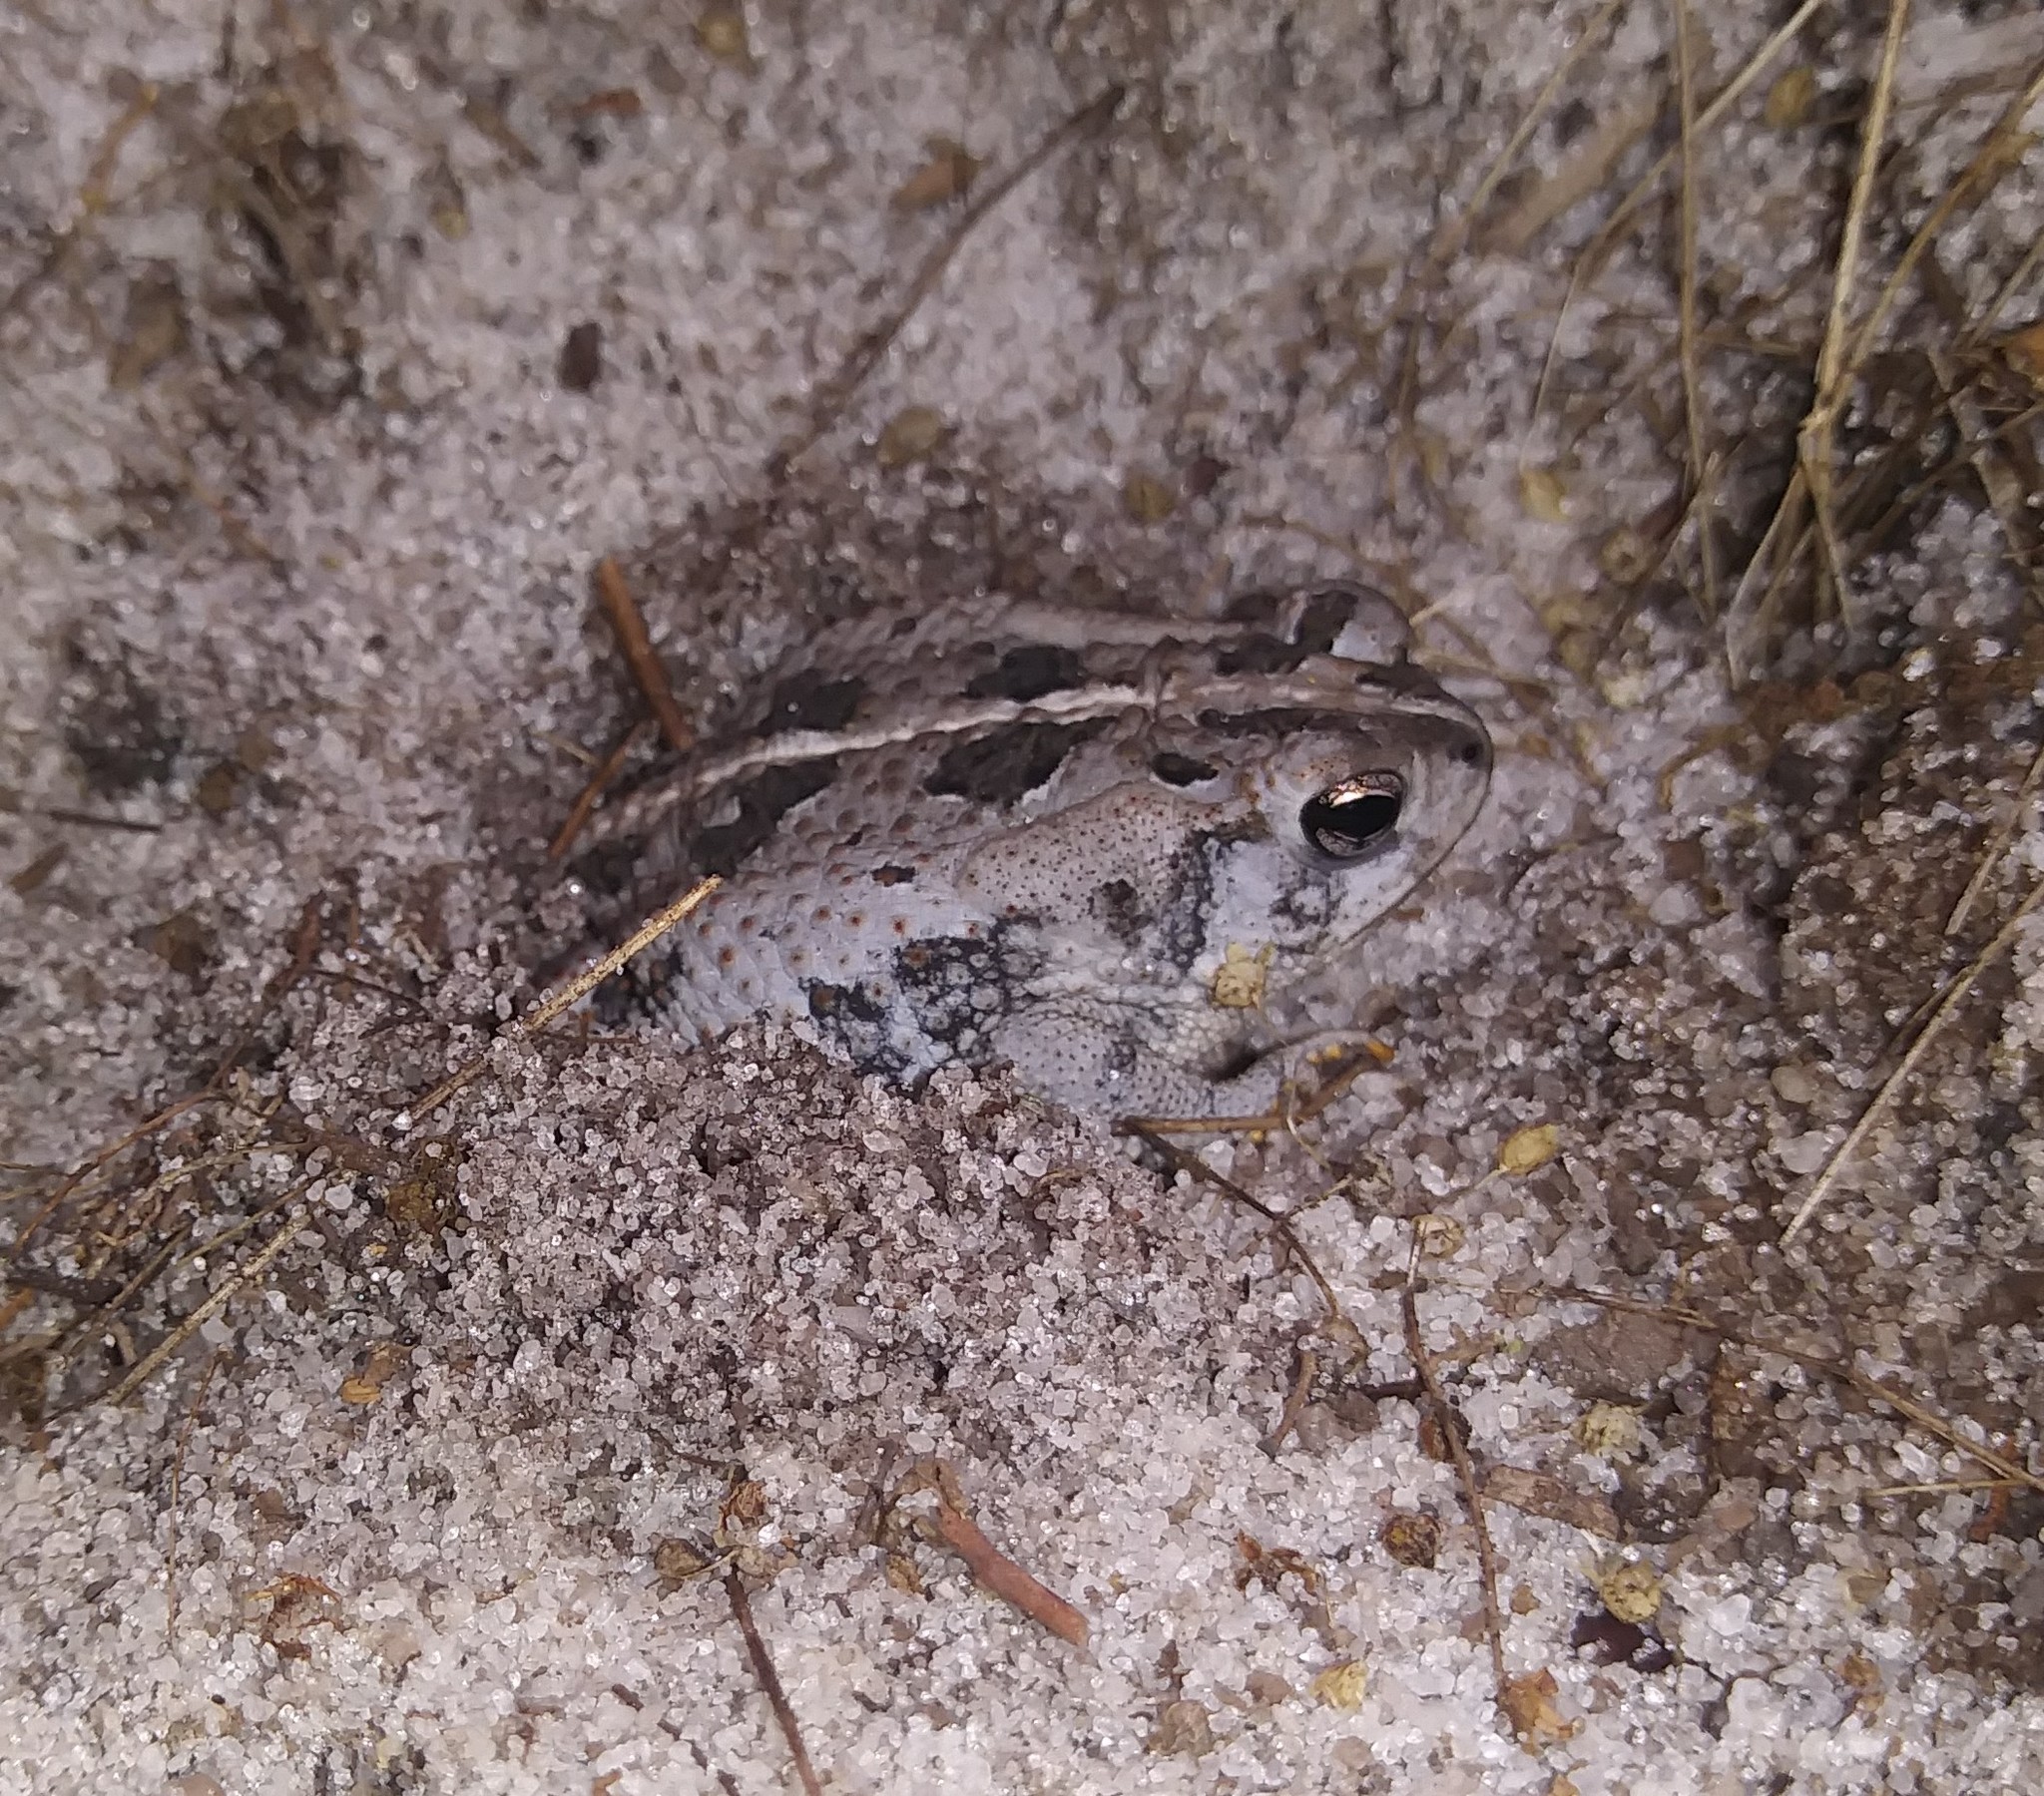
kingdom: Animalia
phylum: Chordata
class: Amphibia
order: Anura
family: Bufonidae
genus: Anaxyrus
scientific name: Anaxyrus quercicus
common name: Oak toad
